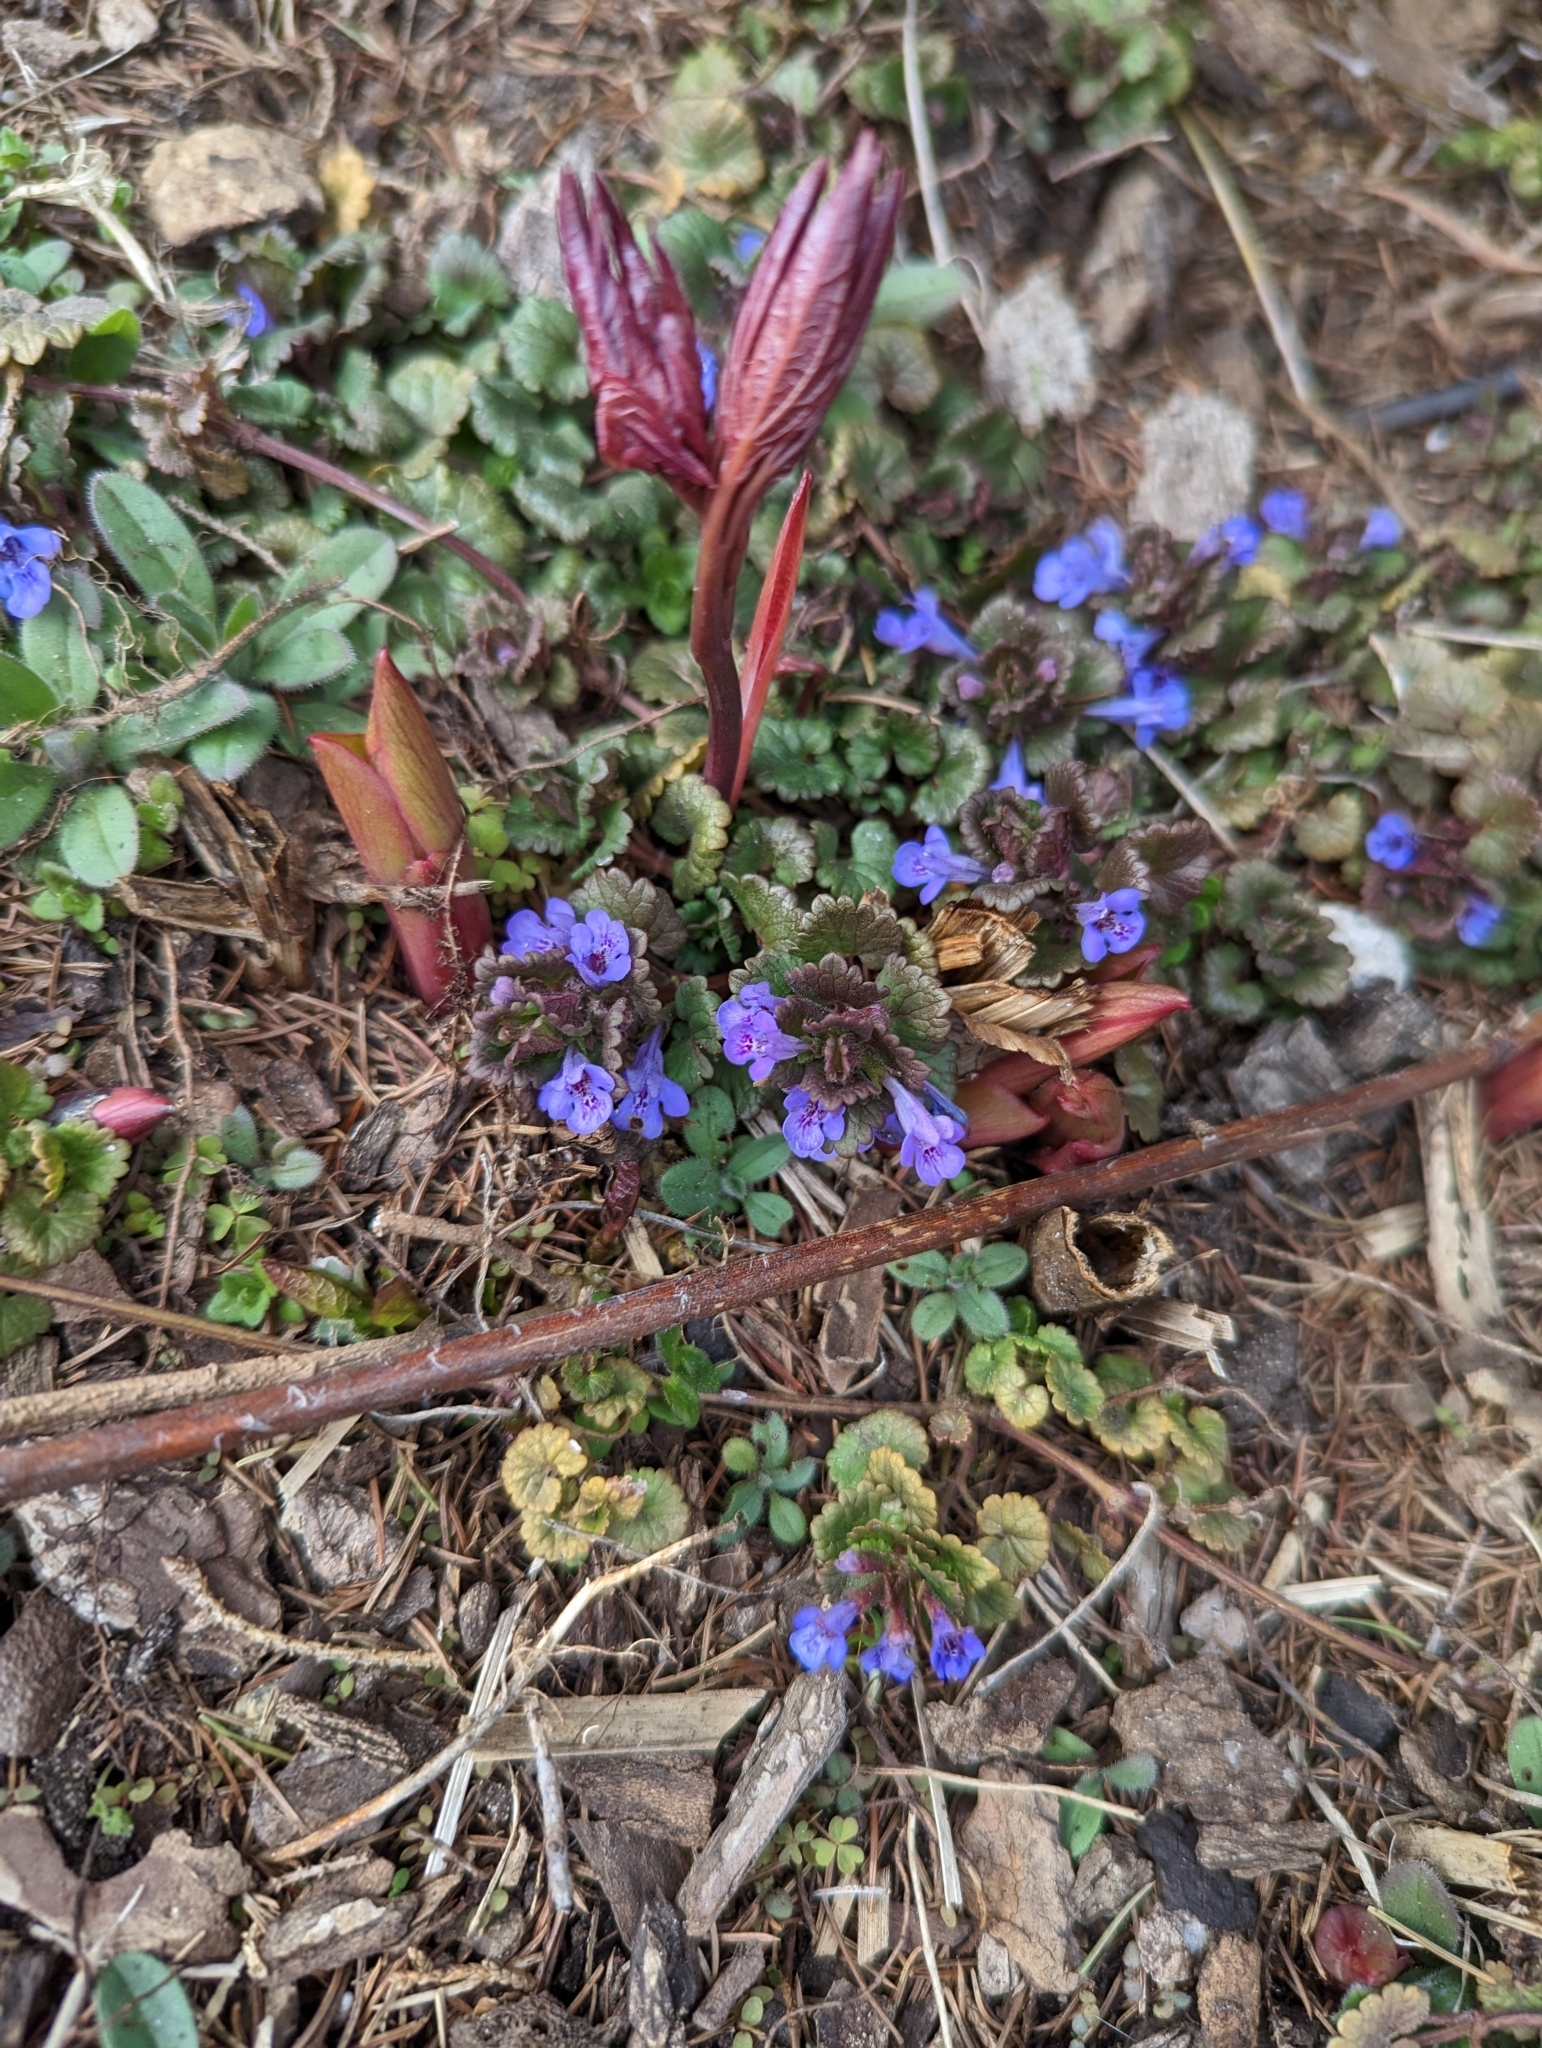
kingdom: Plantae
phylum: Tracheophyta
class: Magnoliopsida
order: Lamiales
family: Lamiaceae
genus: Glechoma
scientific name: Glechoma hederacea
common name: Ground ivy
